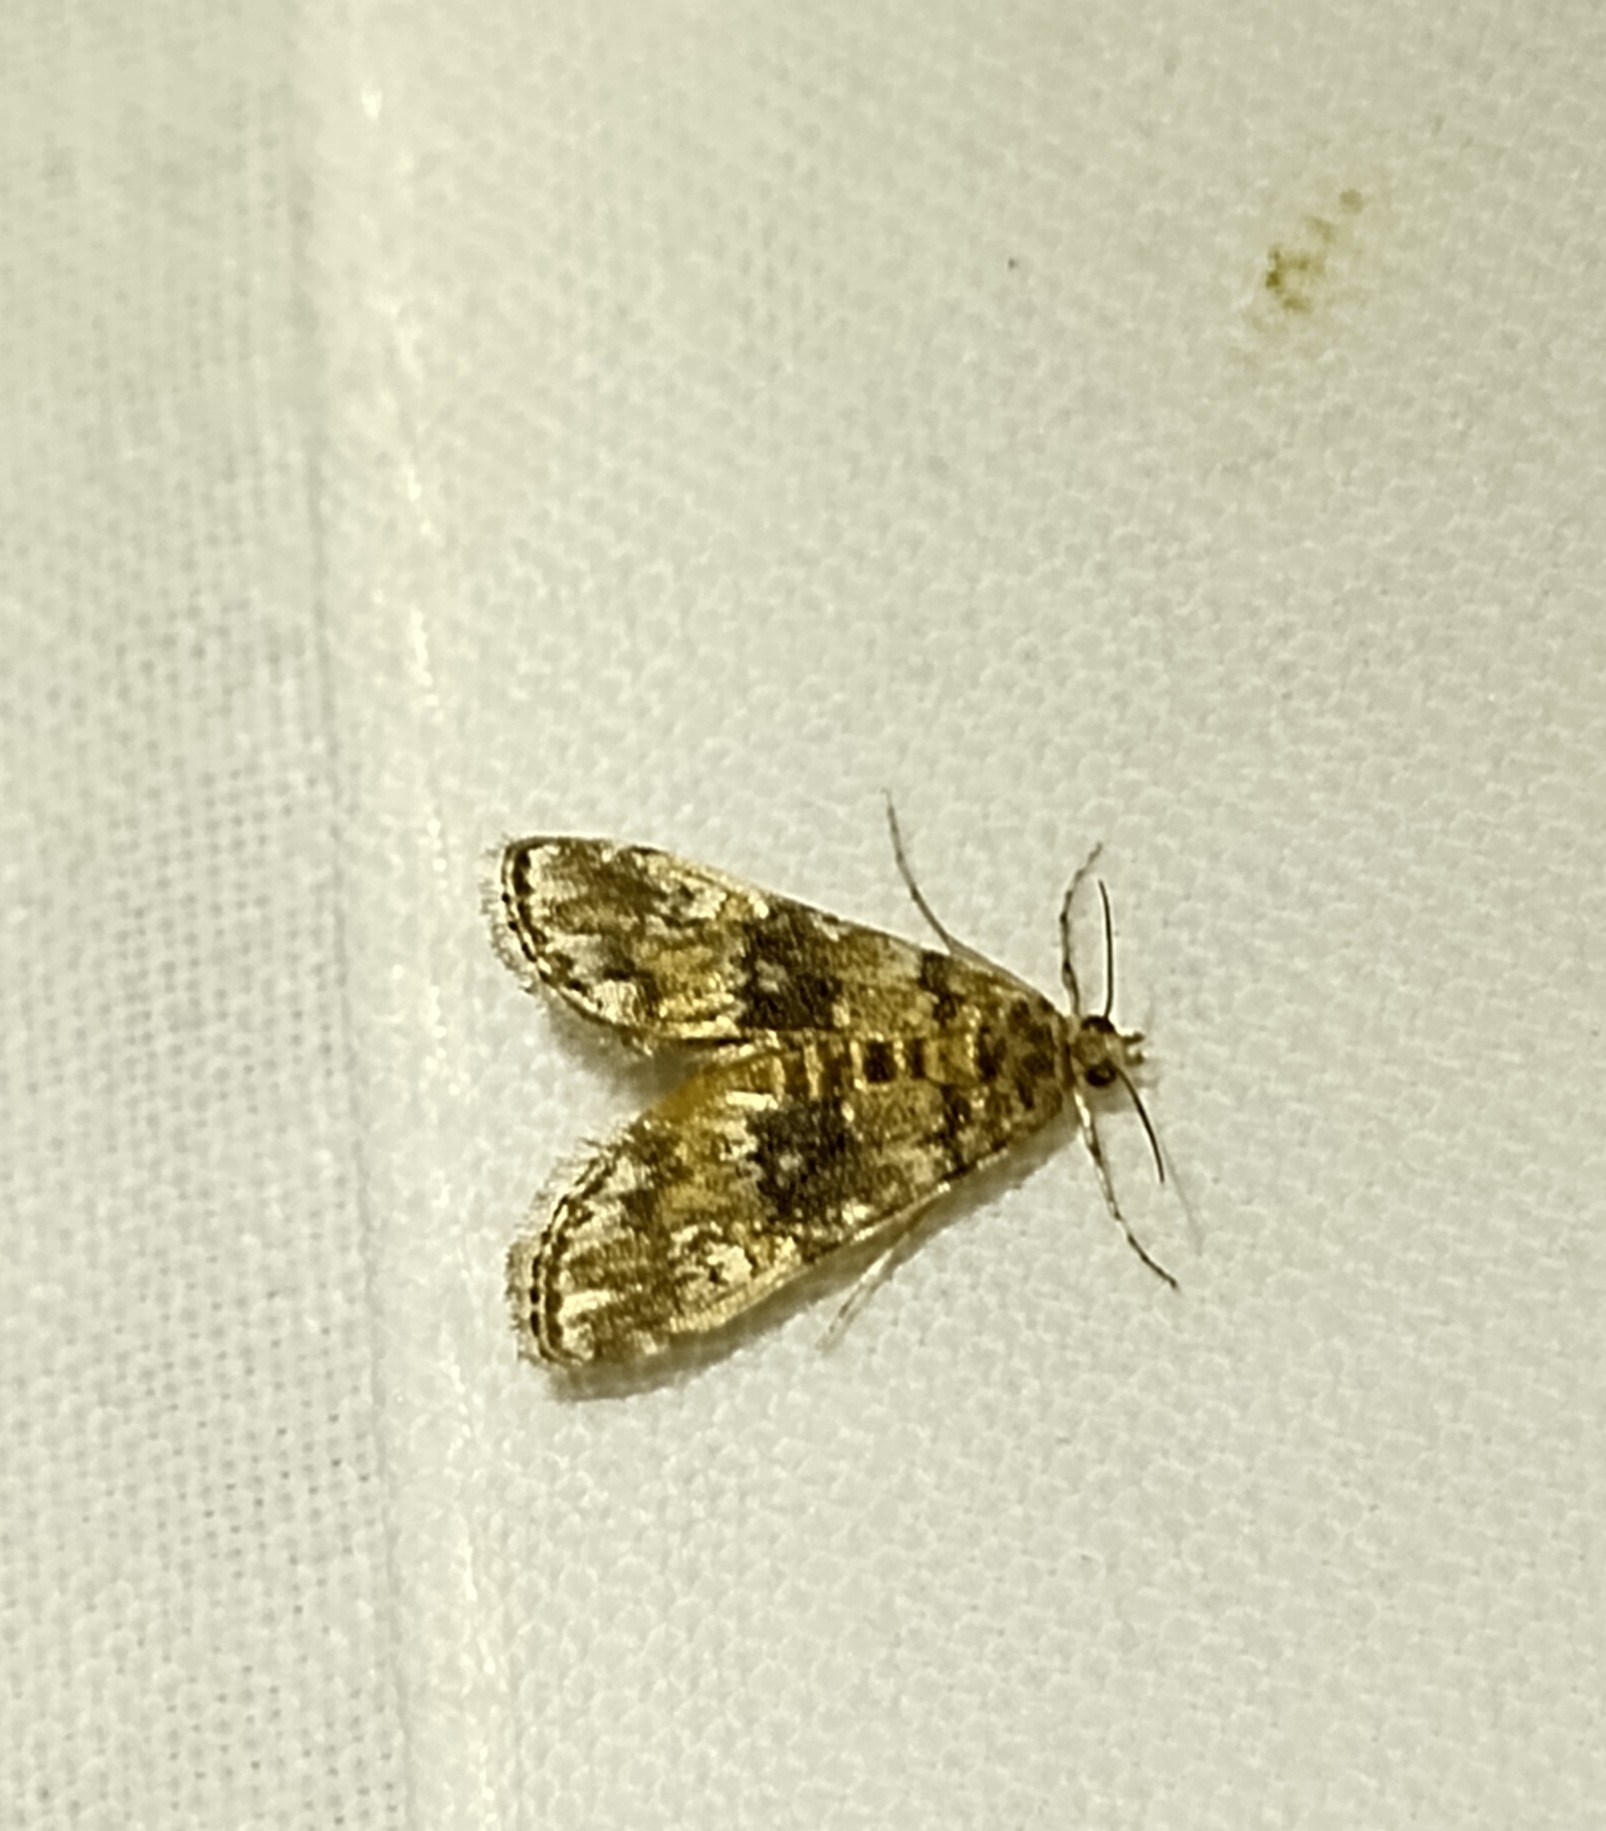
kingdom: Animalia
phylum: Arthropoda
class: Insecta
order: Lepidoptera
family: Crambidae
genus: Elophila
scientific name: Elophila obliteralis
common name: Waterlily leafcutter moth
